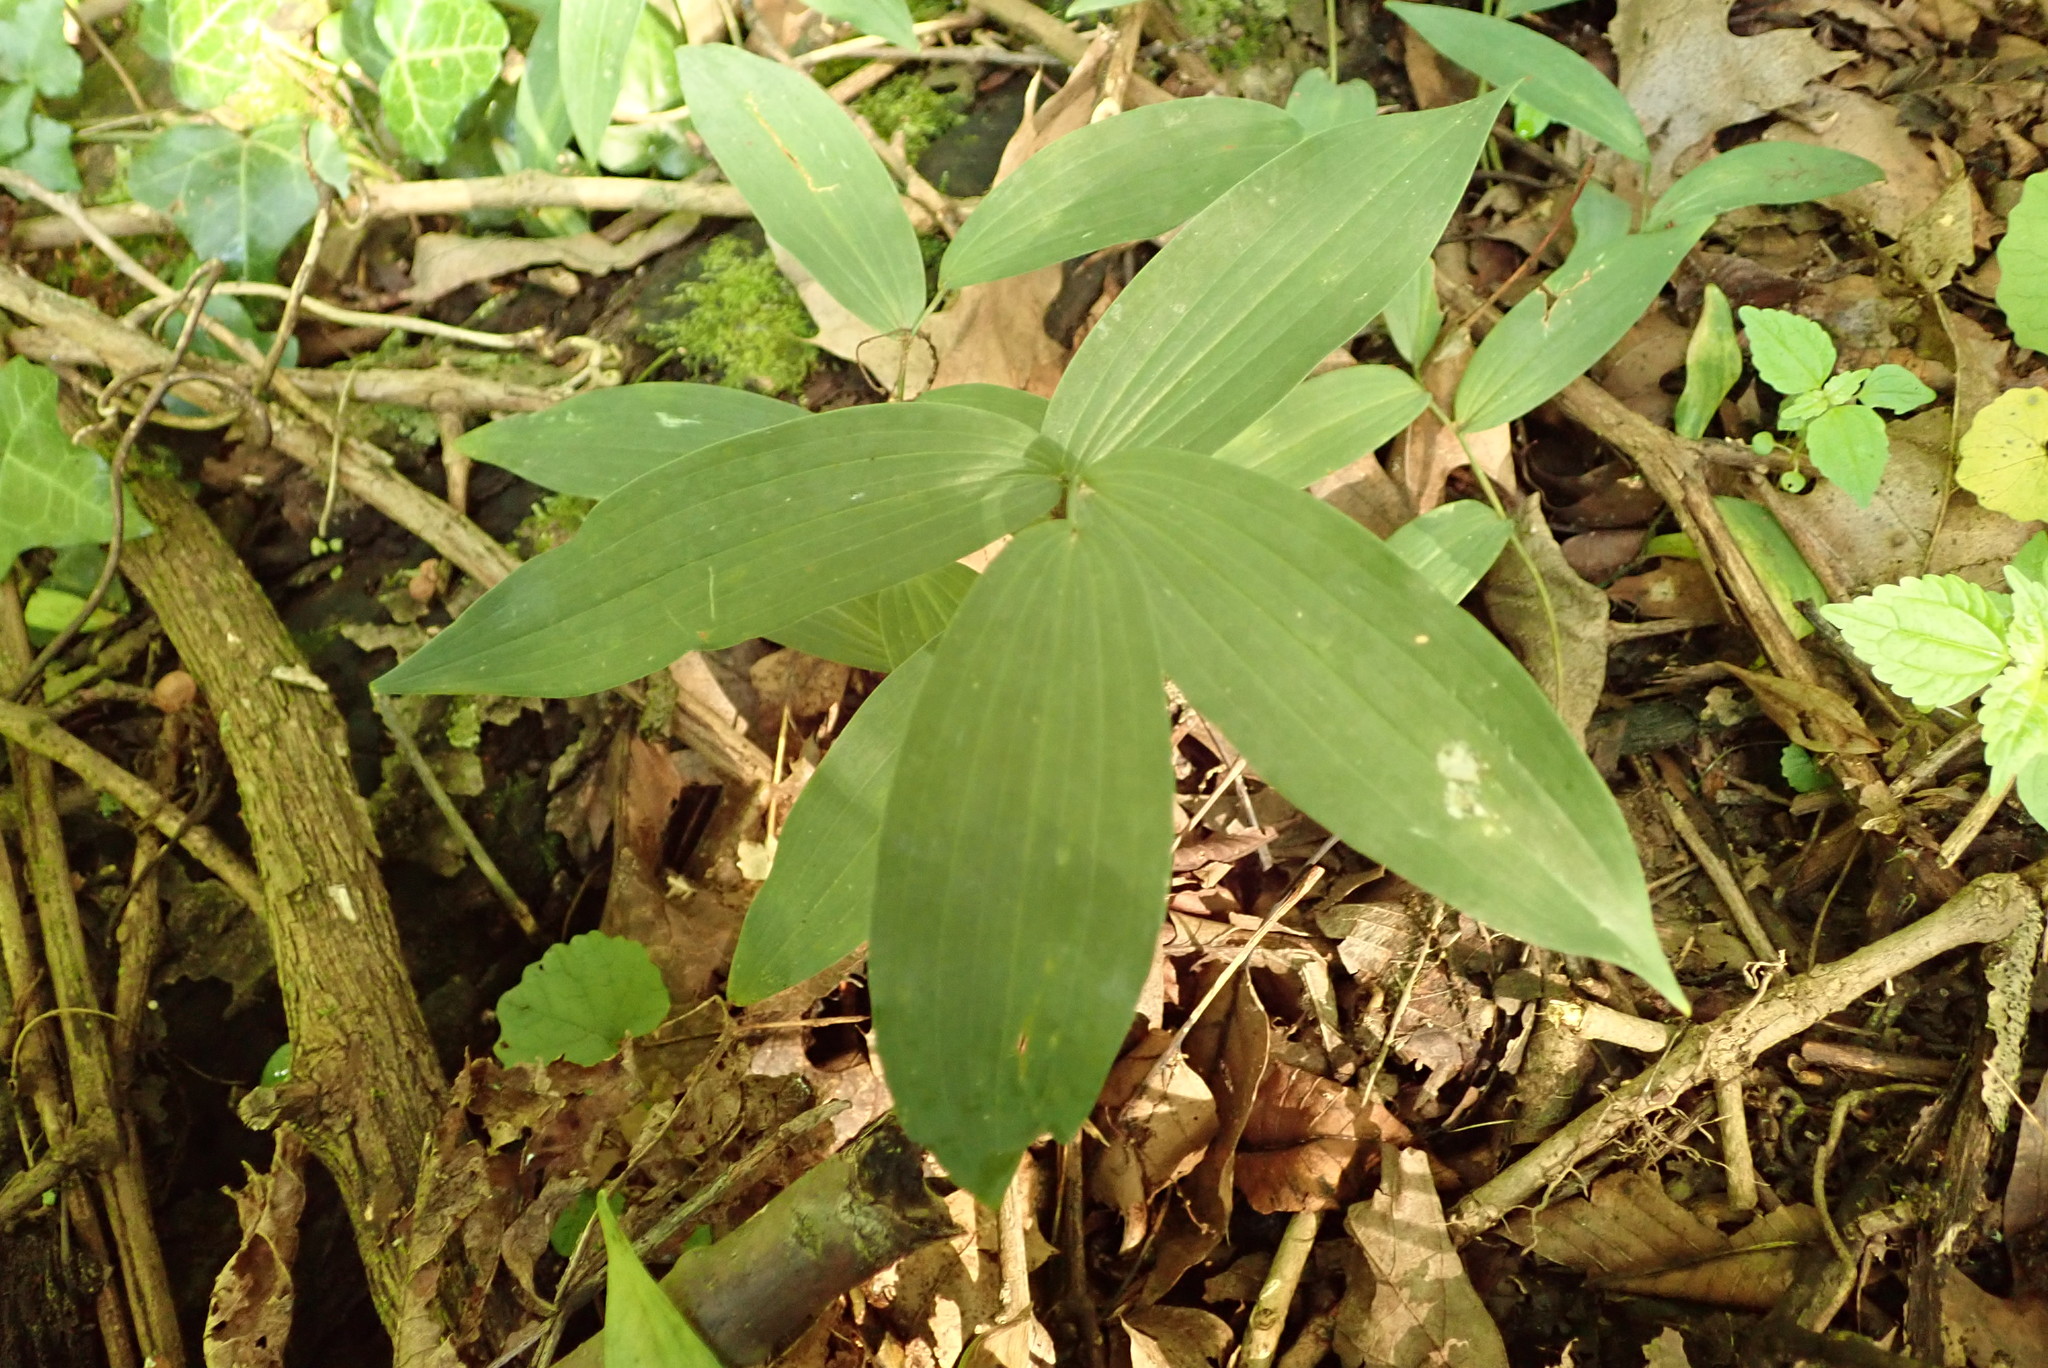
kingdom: Plantae
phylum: Tracheophyta
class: Liliopsida
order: Asparagales
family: Asparagaceae
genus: Polygonatum
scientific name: Polygonatum biflorum
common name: American solomon's-seal
